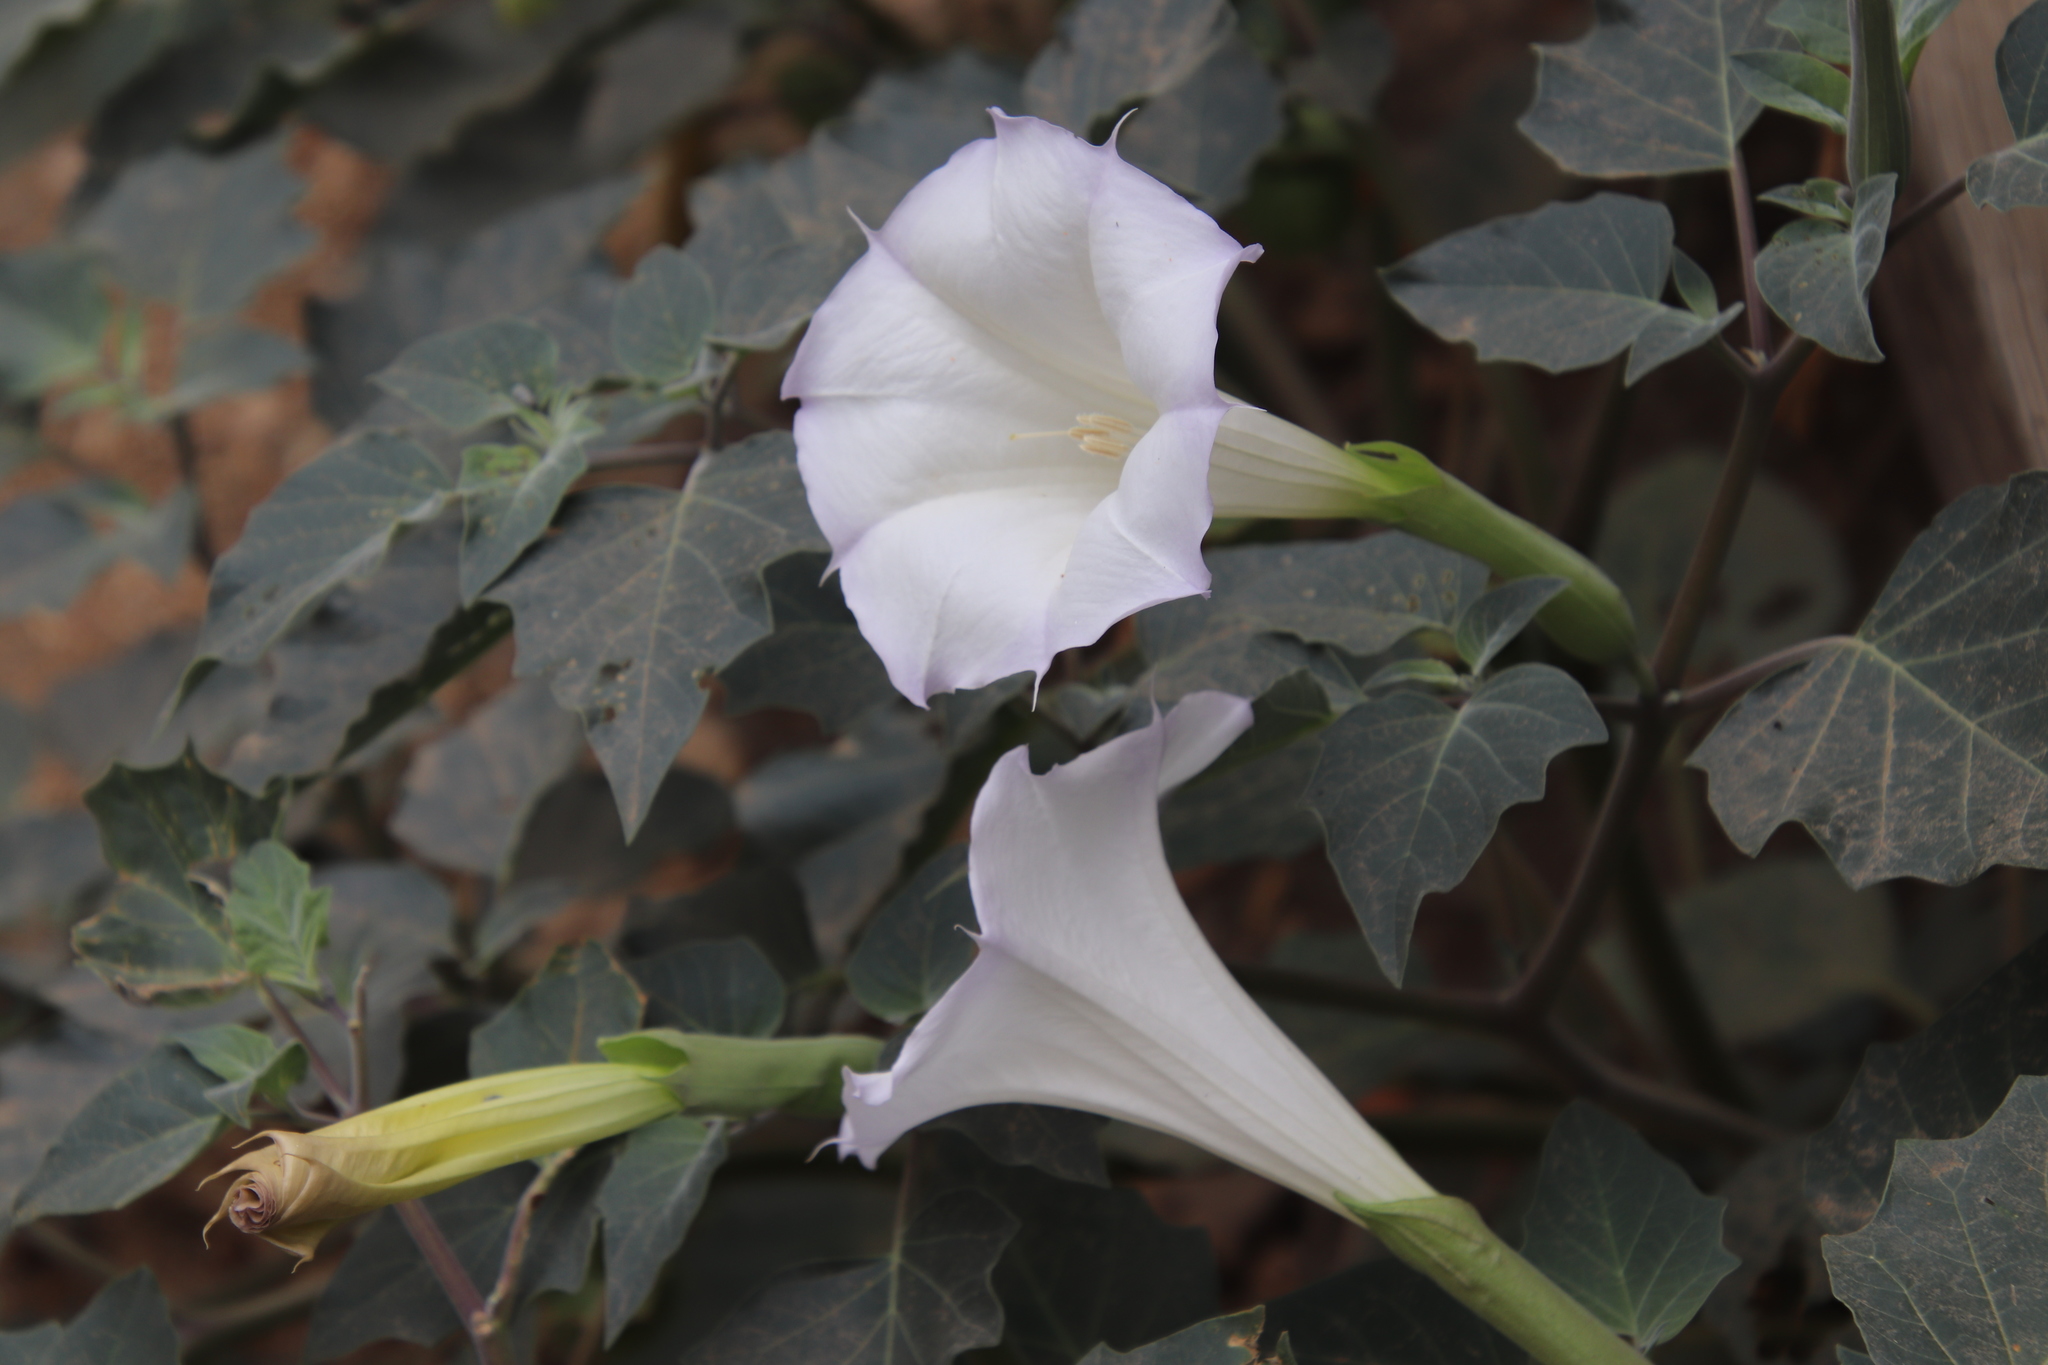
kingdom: Plantae
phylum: Tracheophyta
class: Magnoliopsida
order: Solanales
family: Solanaceae
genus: Datura
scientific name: Datura wrightii
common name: Sacred thorn-apple
